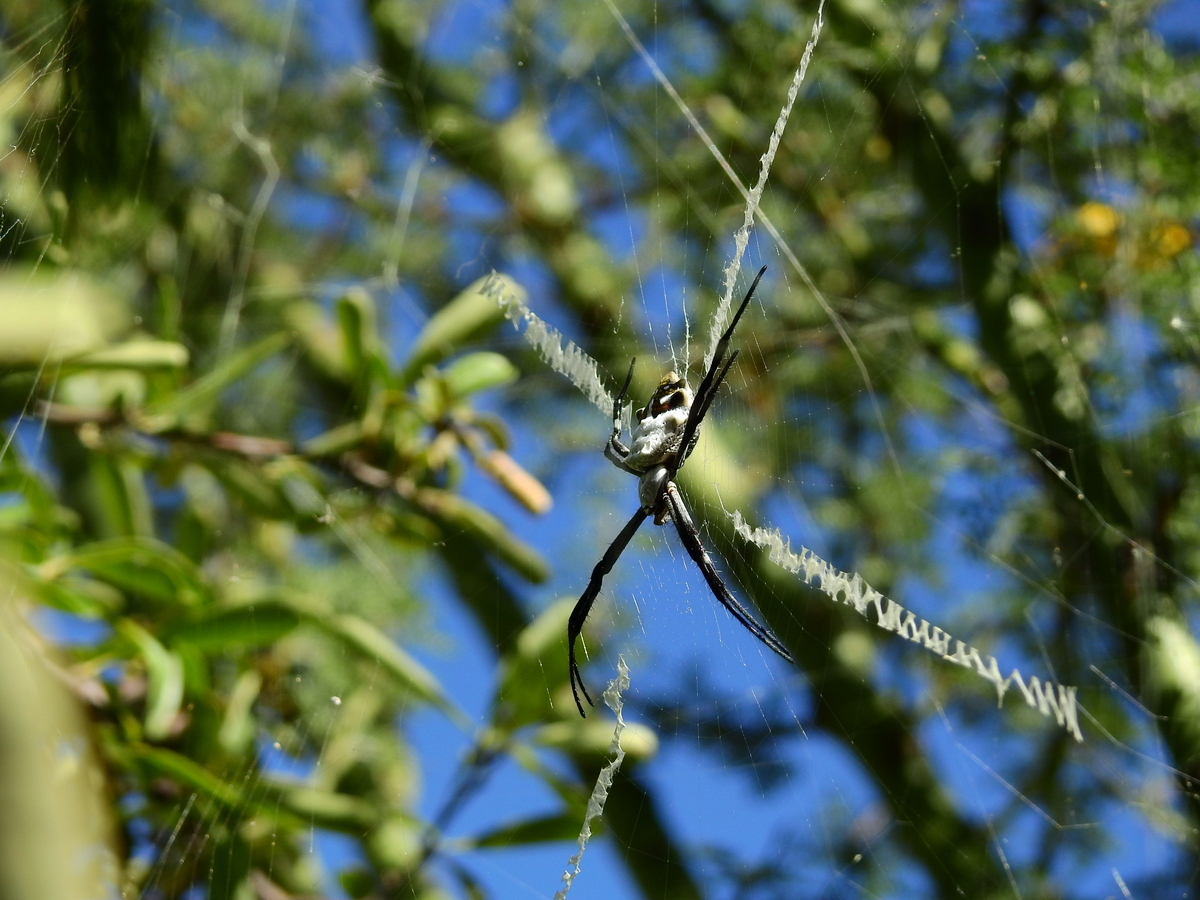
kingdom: Animalia
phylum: Arthropoda
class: Arachnida
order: Araneae
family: Araneidae
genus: Argiope
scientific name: Argiope argentata
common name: Orb weavers
